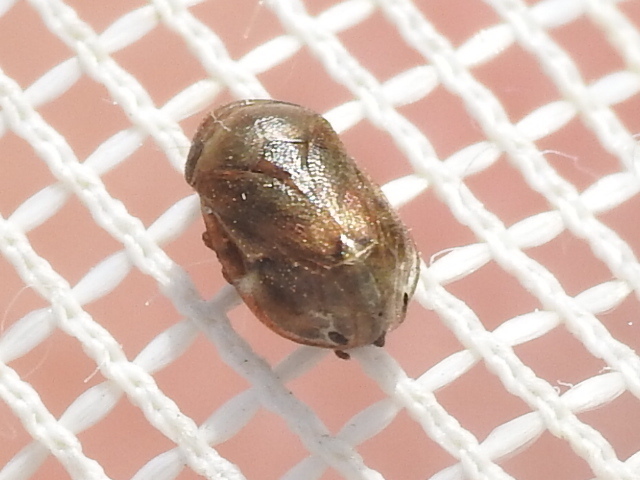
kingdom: Animalia
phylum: Arthropoda
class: Insecta
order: Hemiptera
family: Clastopteridae
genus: Clastoptera
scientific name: Clastoptera xanthocephala
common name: Sunflower spittlebug
